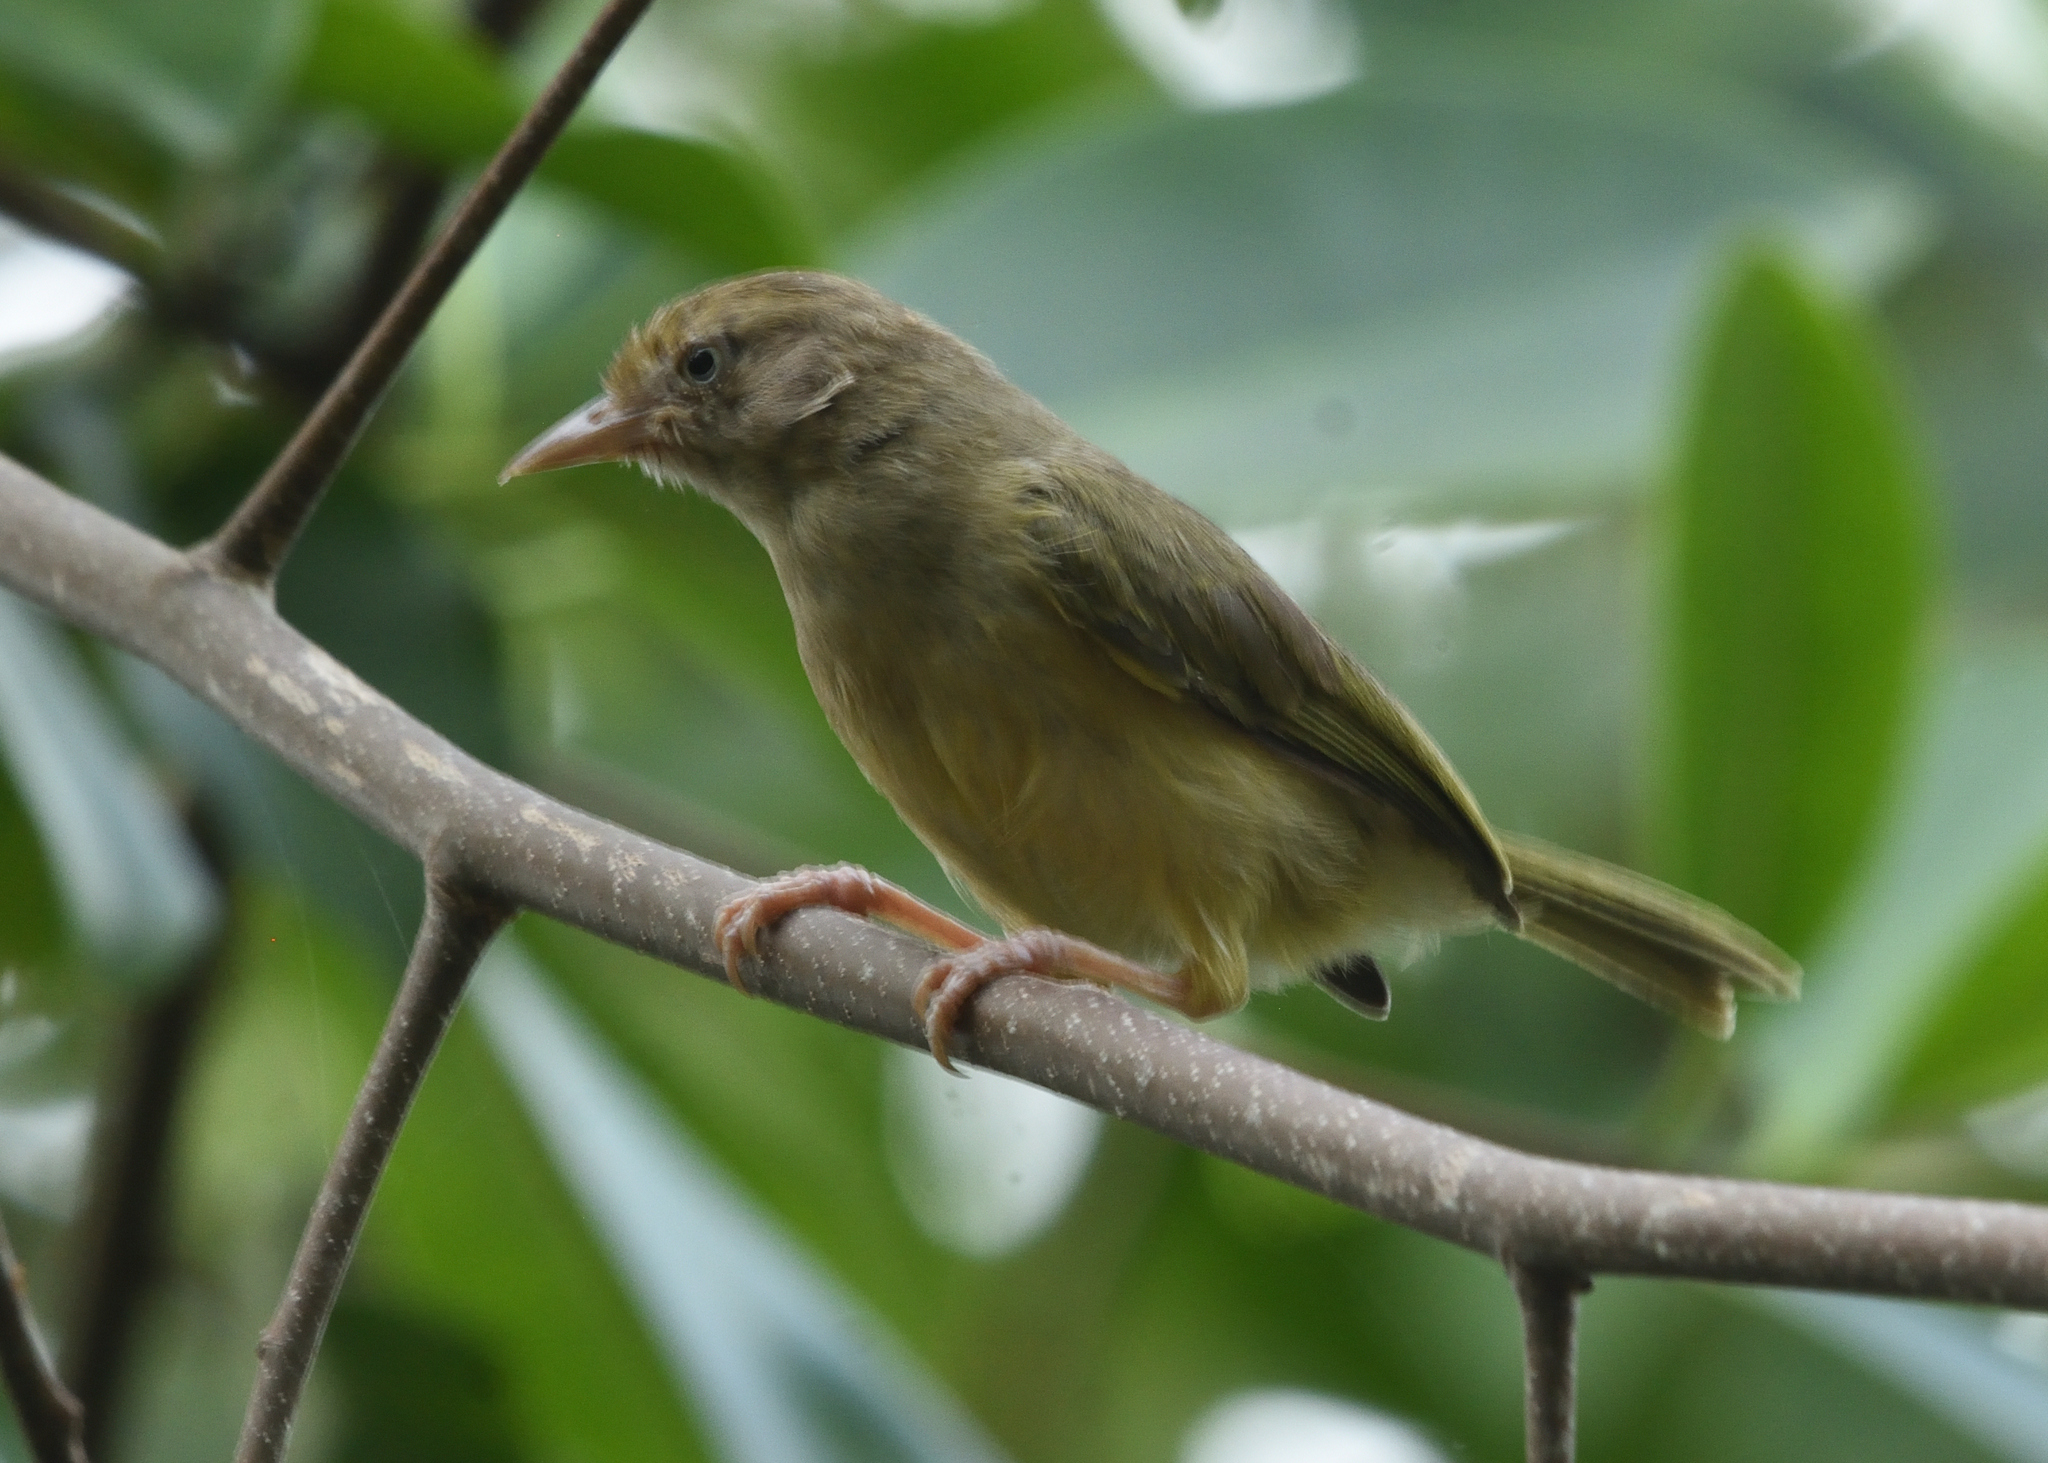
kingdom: Animalia
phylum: Chordata
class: Aves
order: Passeriformes
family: Vireonidae
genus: Hylophilus
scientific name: Hylophilus flavipes
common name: Scrub greenlet
